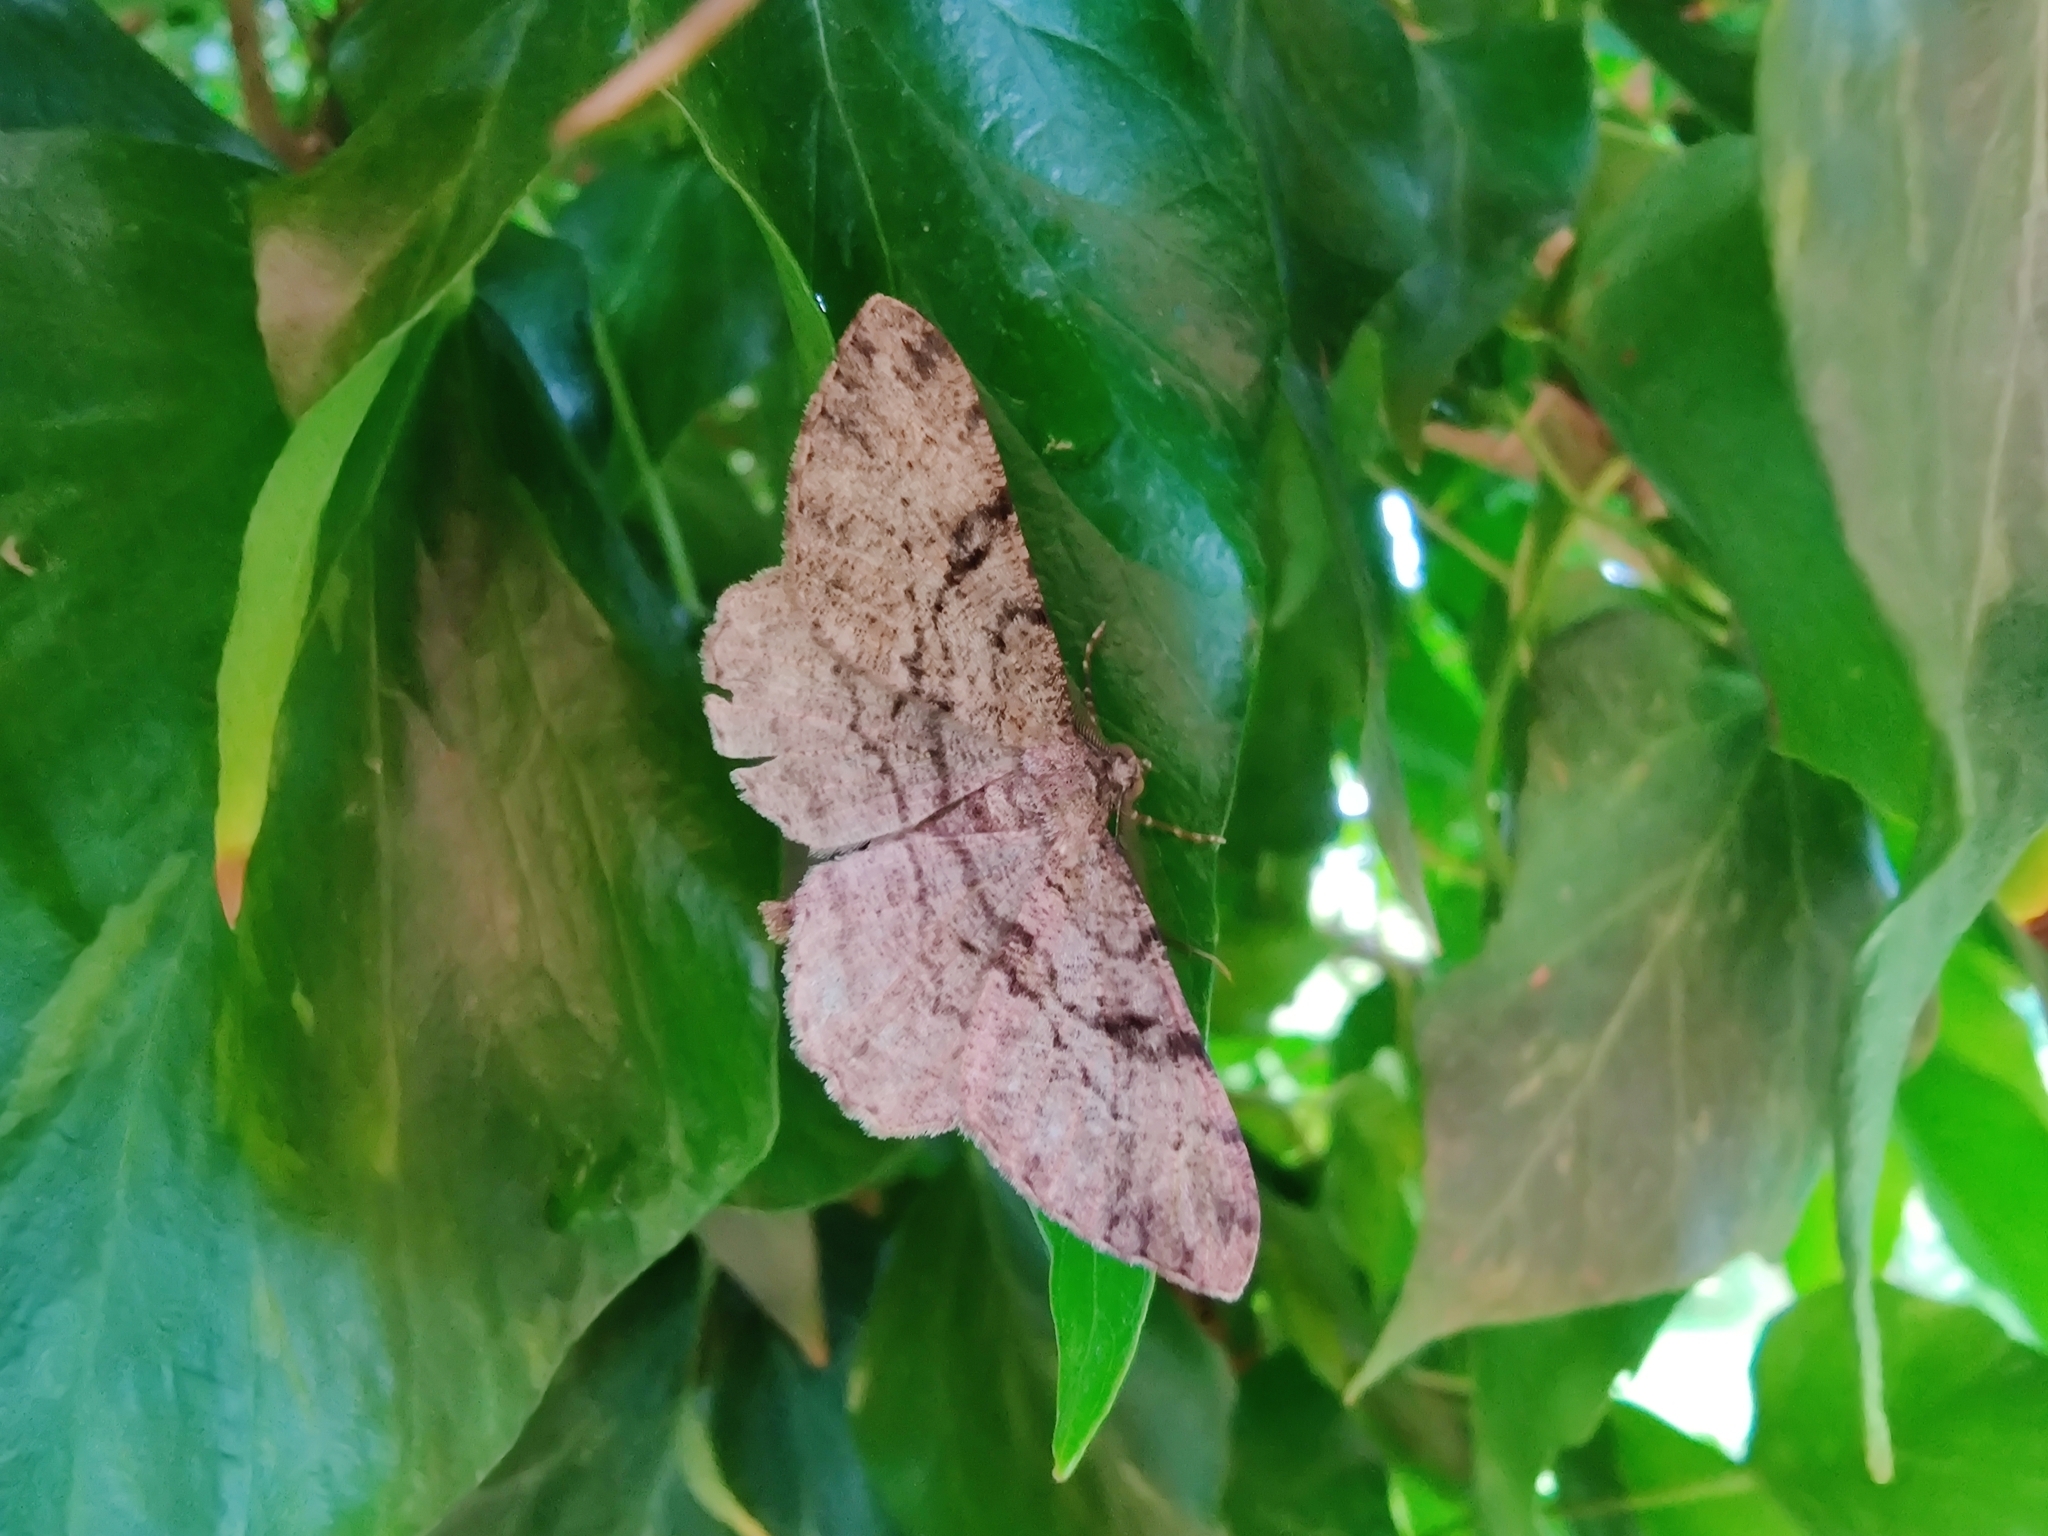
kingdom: Animalia
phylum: Arthropoda
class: Insecta
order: Lepidoptera
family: Geometridae
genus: Peribatodes
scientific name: Peribatodes rhomboidaria
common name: Willow beauty
